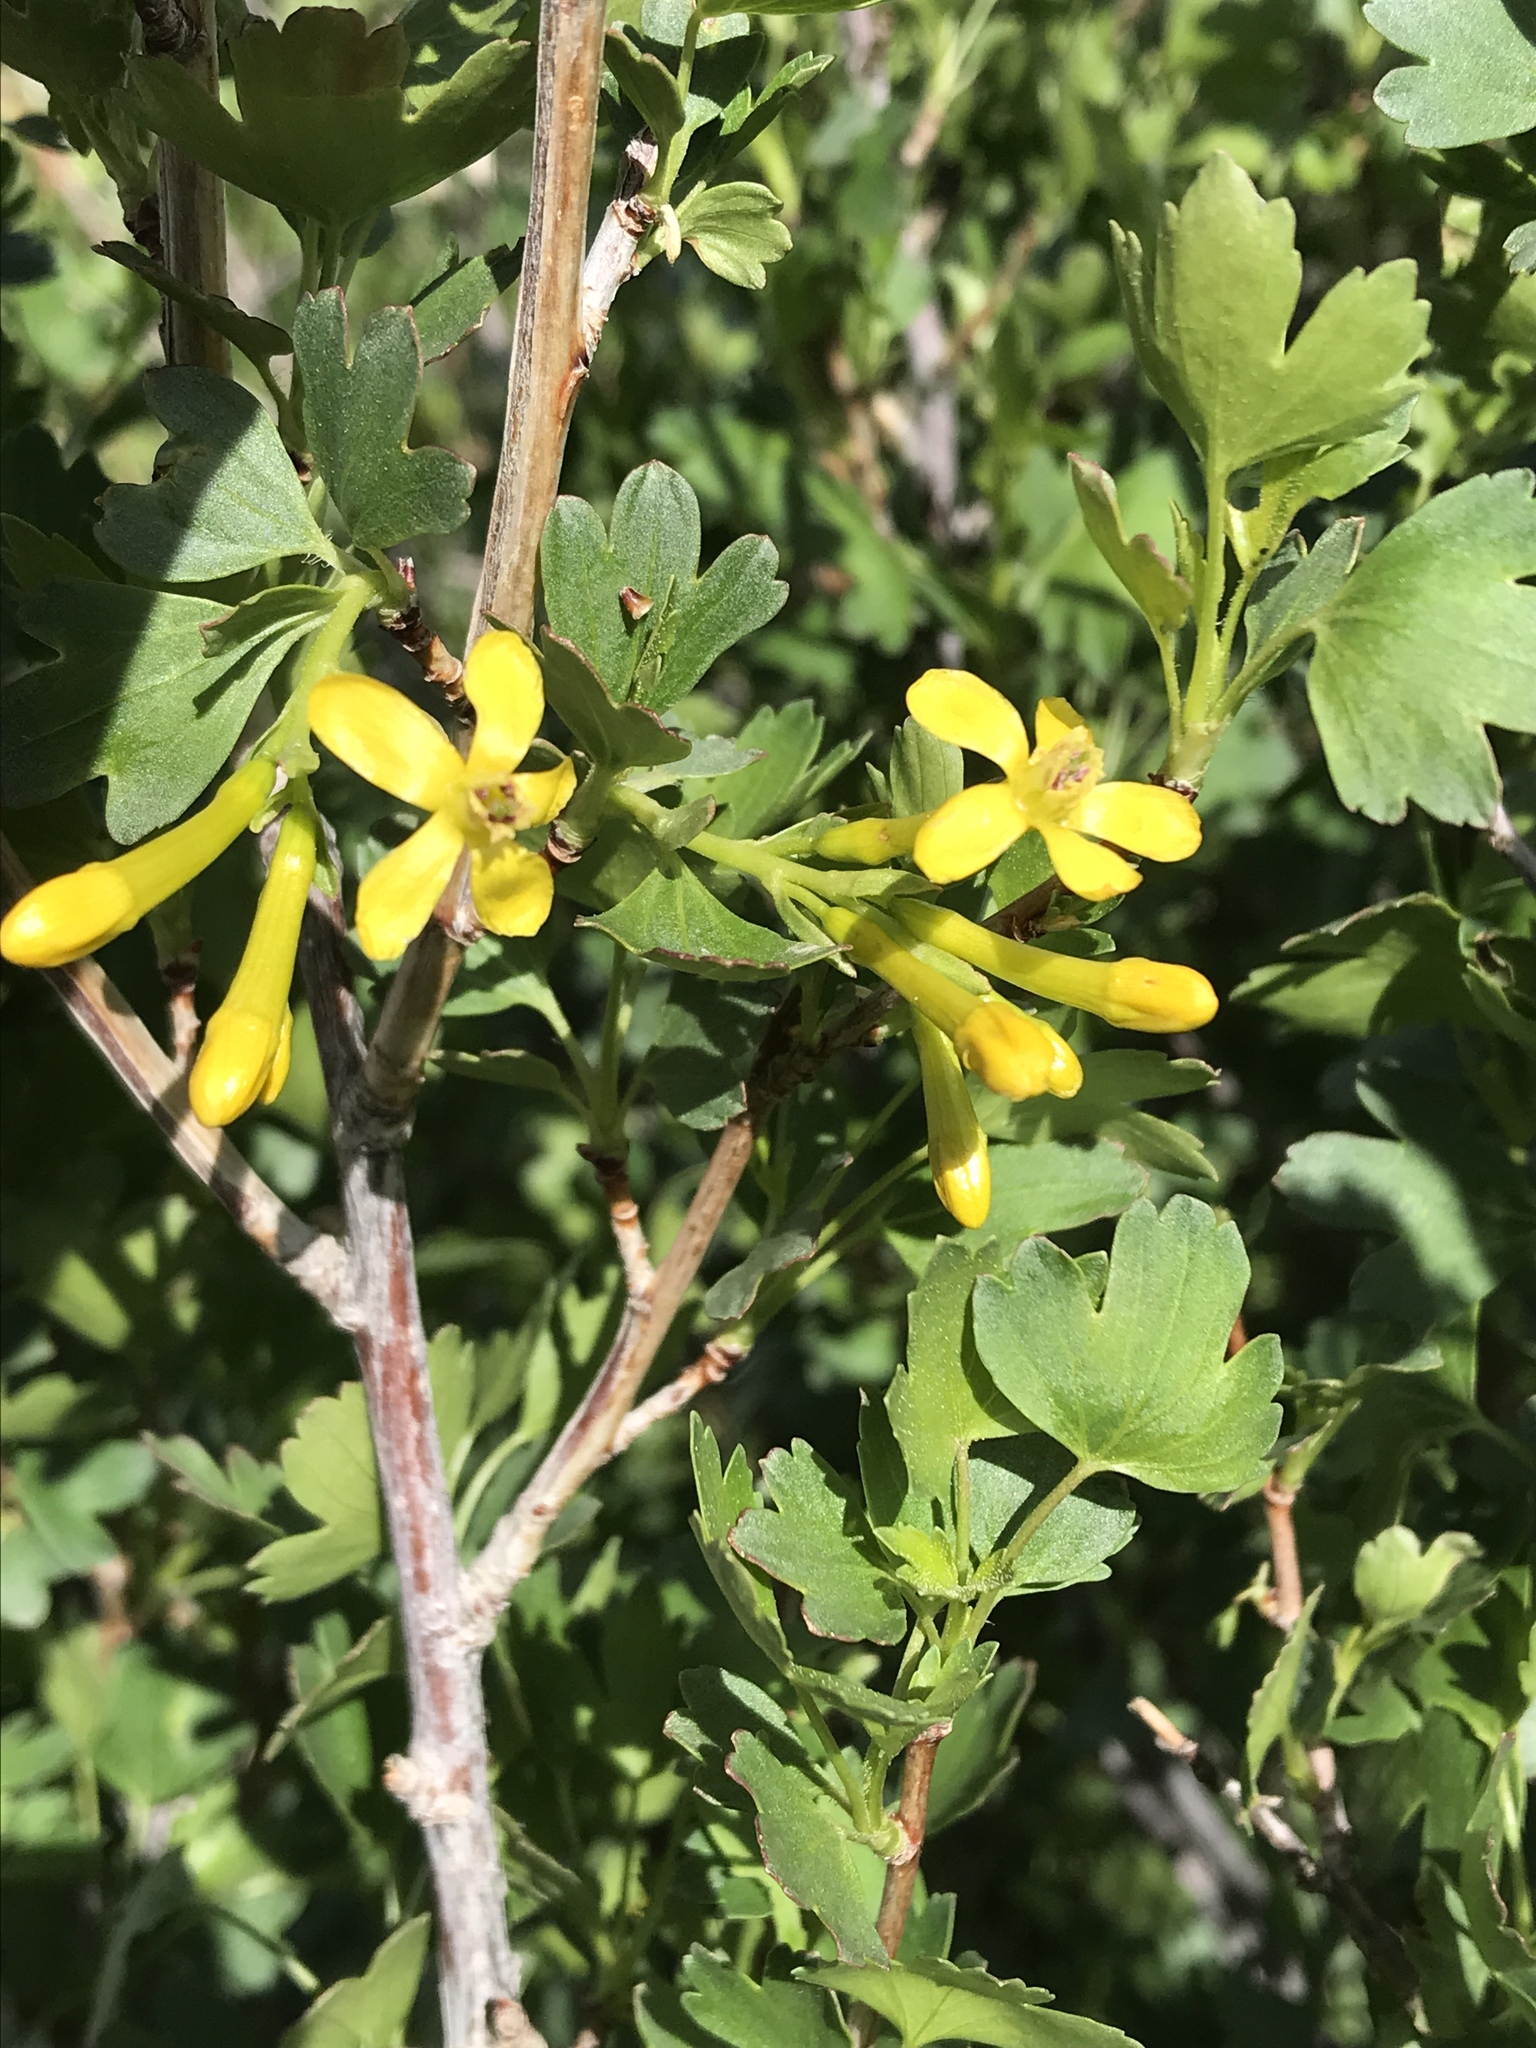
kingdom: Plantae
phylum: Tracheophyta
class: Magnoliopsida
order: Saxifragales
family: Grossulariaceae
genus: Ribes
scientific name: Ribes aureum
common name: Golden currant
